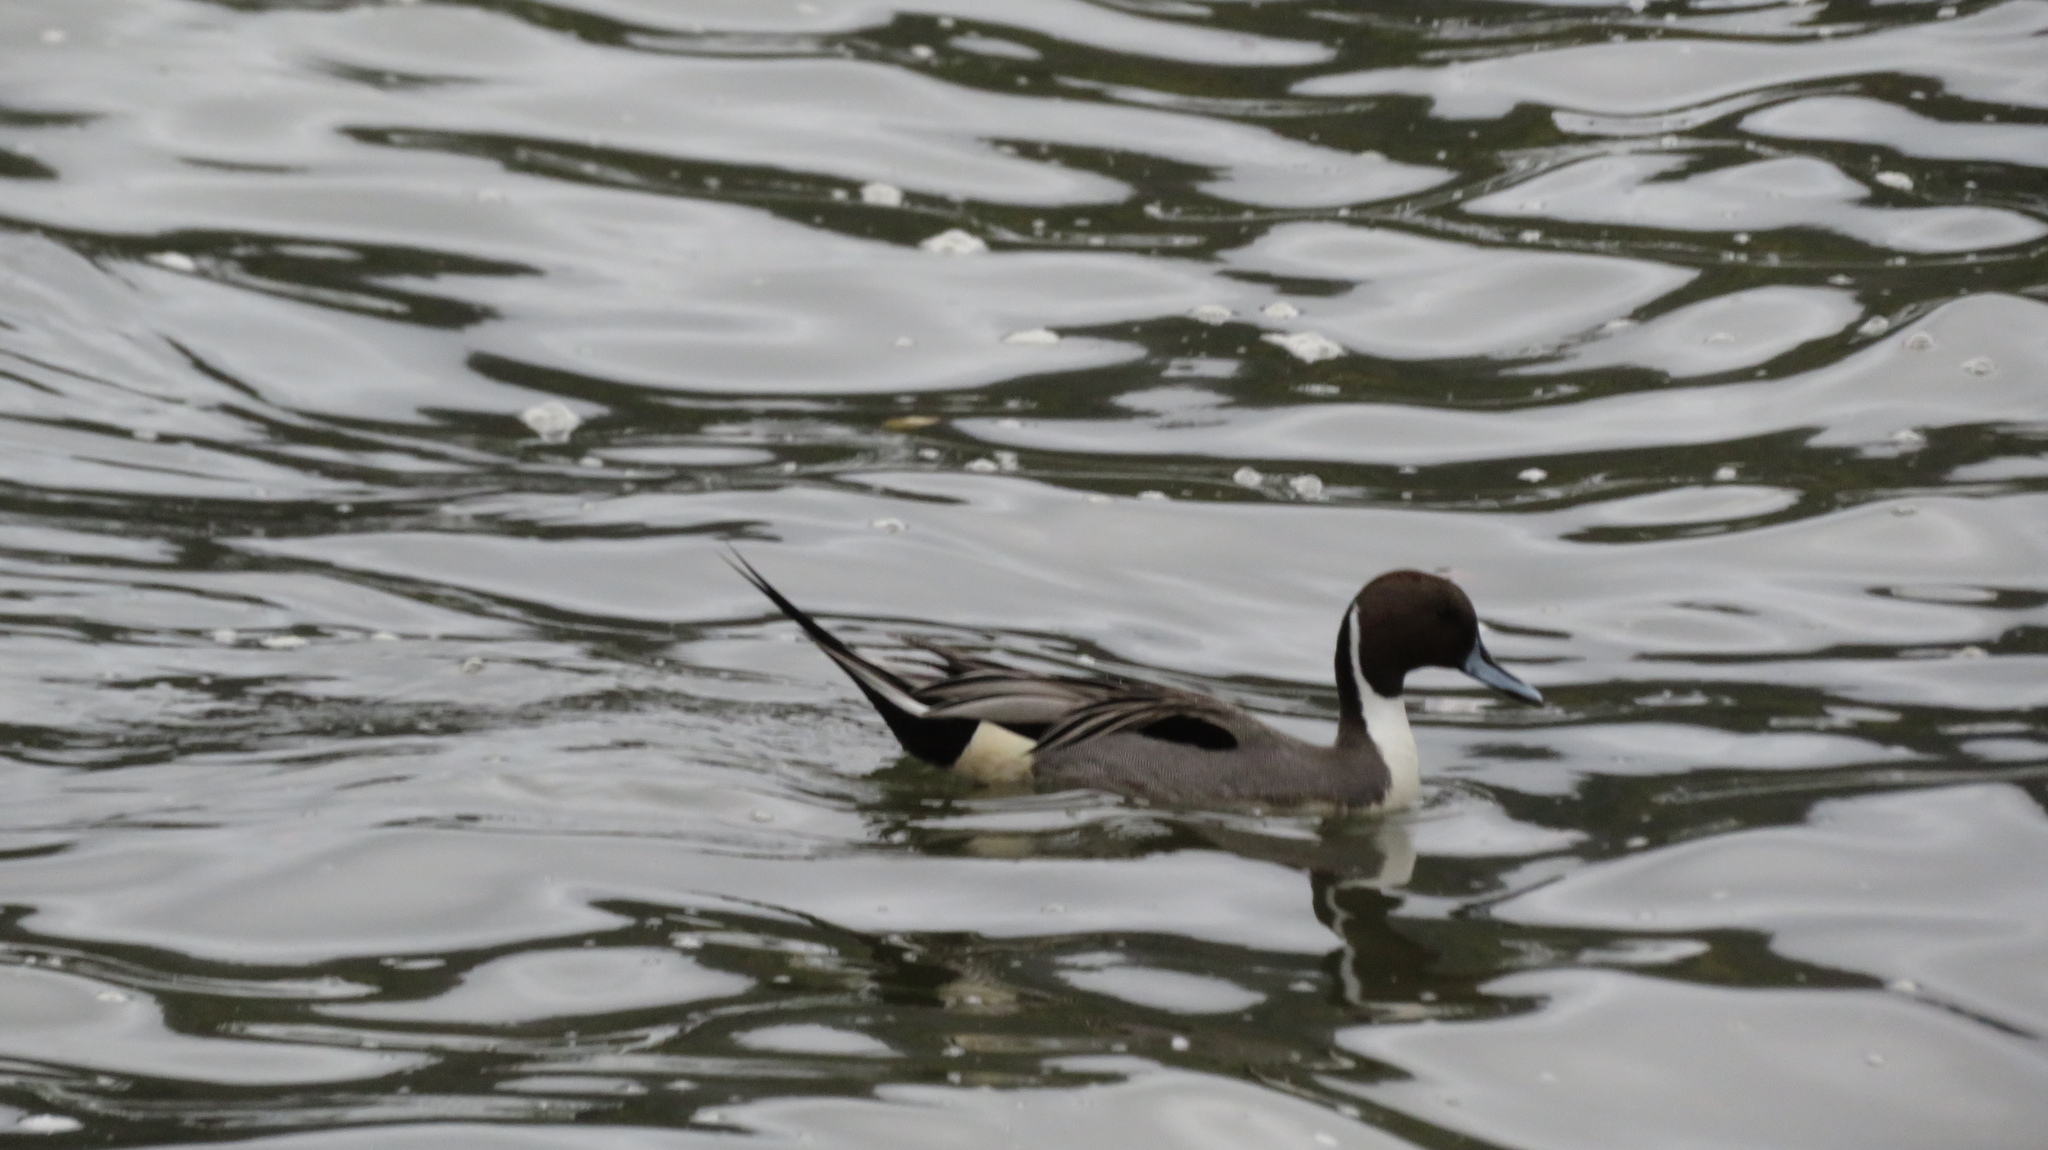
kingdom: Animalia
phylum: Chordata
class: Aves
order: Anseriformes
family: Anatidae
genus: Anas
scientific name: Anas acuta
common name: Northern pintail
